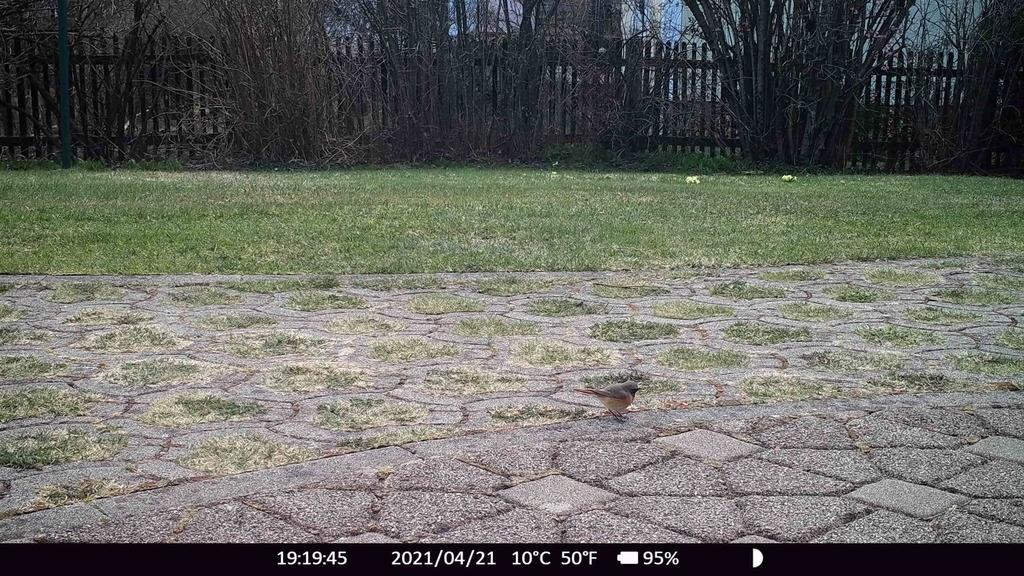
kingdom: Animalia
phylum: Chordata
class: Aves
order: Passeriformes
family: Muscicapidae
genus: Phoenicurus
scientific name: Phoenicurus phoenicurus
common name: Common redstart
